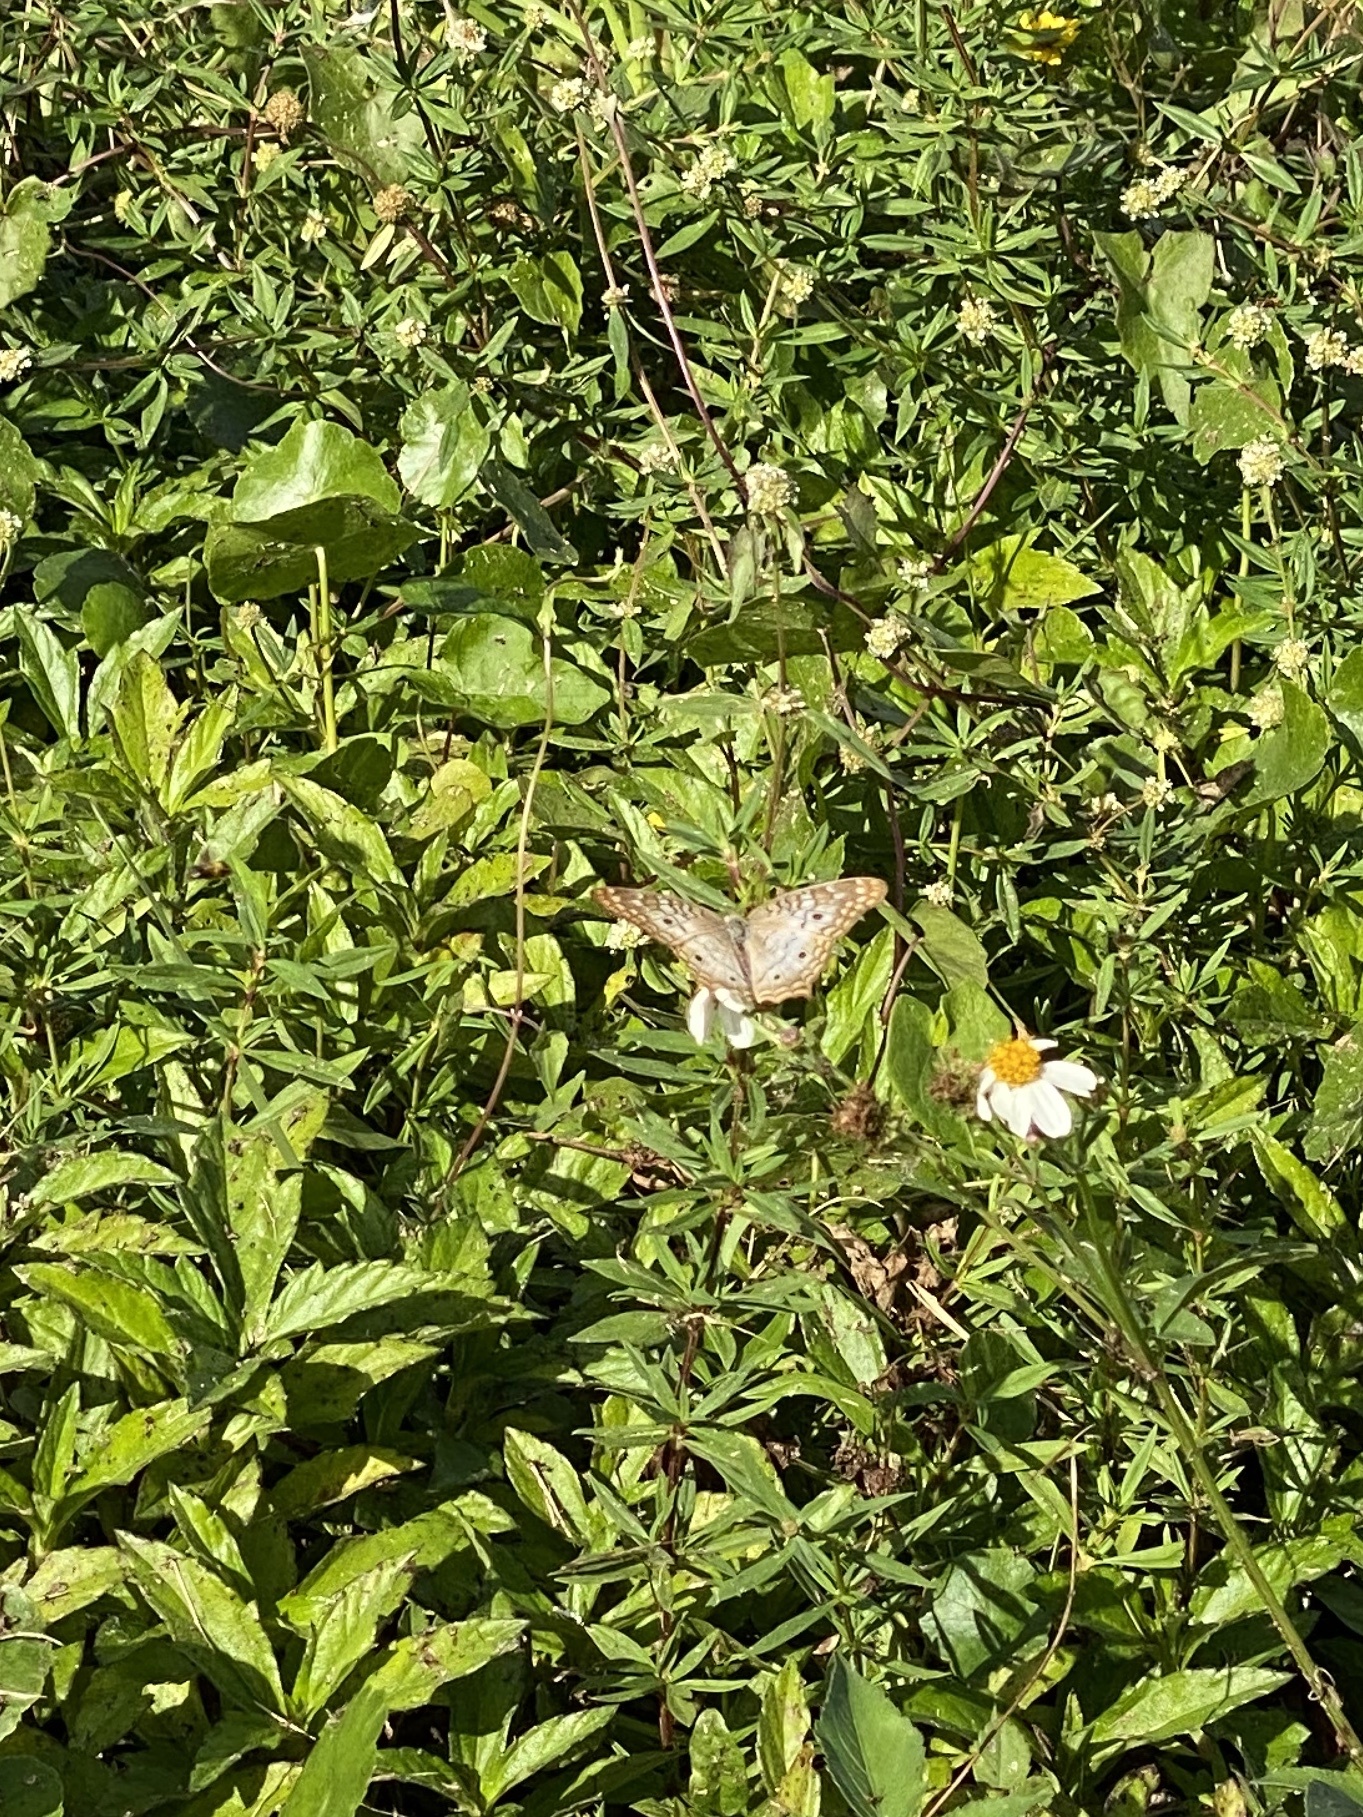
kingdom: Animalia
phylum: Arthropoda
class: Insecta
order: Lepidoptera
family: Nymphalidae
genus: Anartia
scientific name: Anartia jatrophae
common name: White peacock
